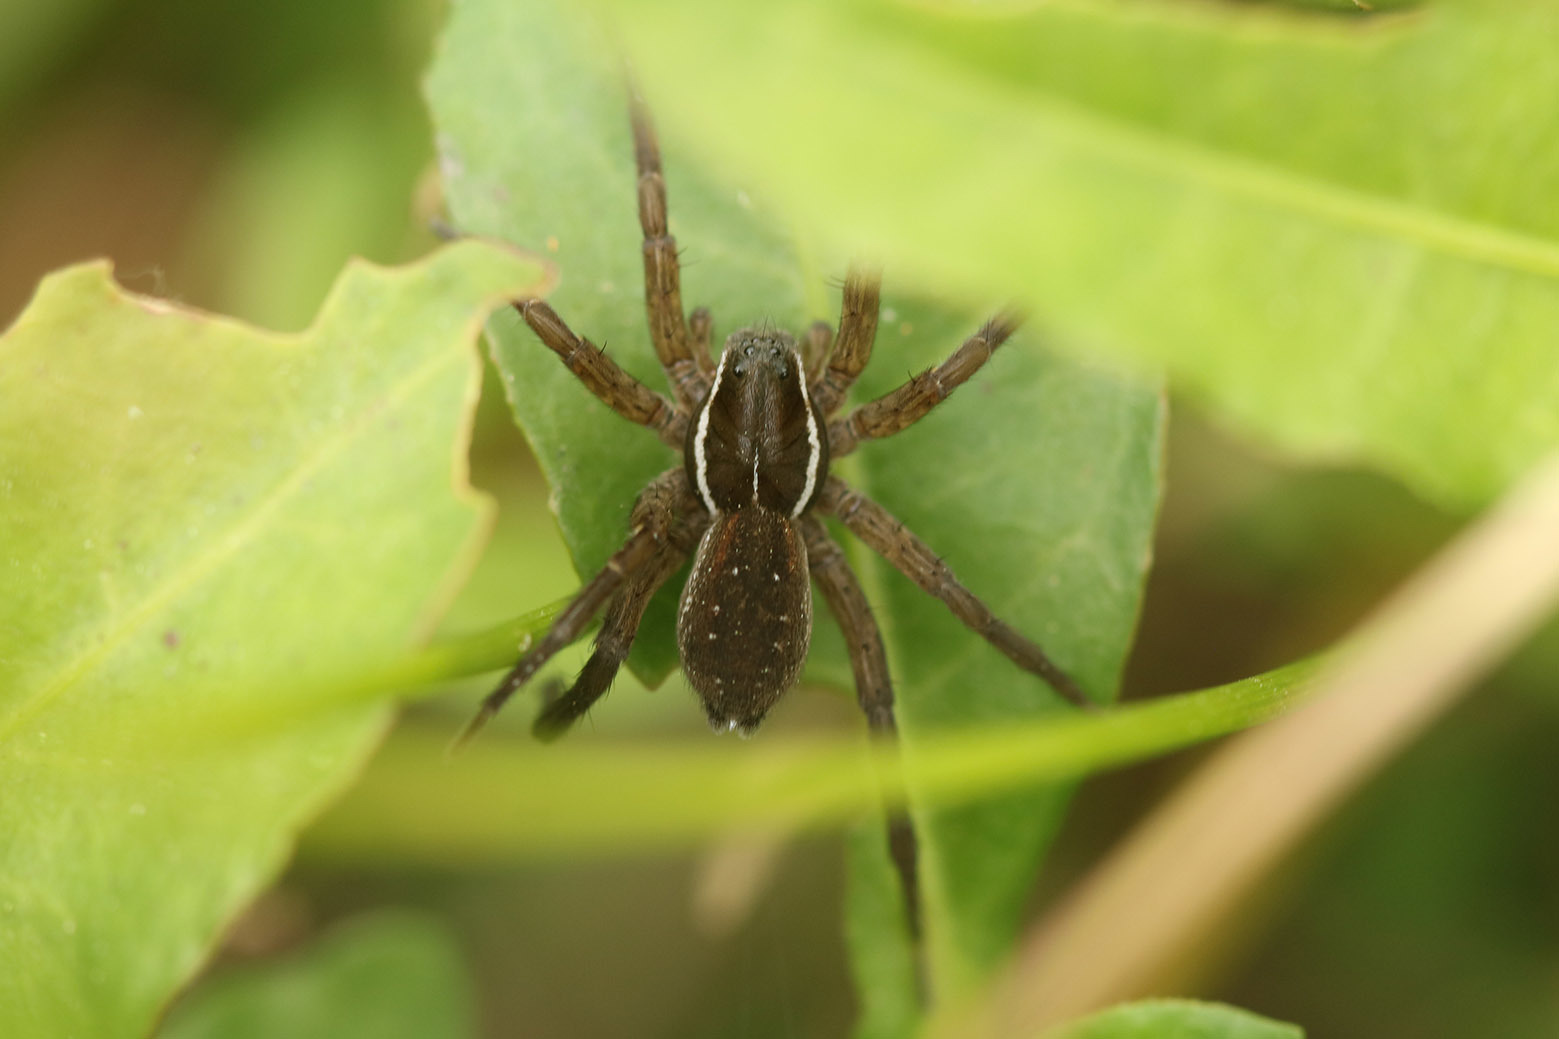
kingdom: Animalia
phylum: Arthropoda
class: Arachnida
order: Araneae
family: Lycosidae
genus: Diapontia
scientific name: Diapontia uruguayensis
